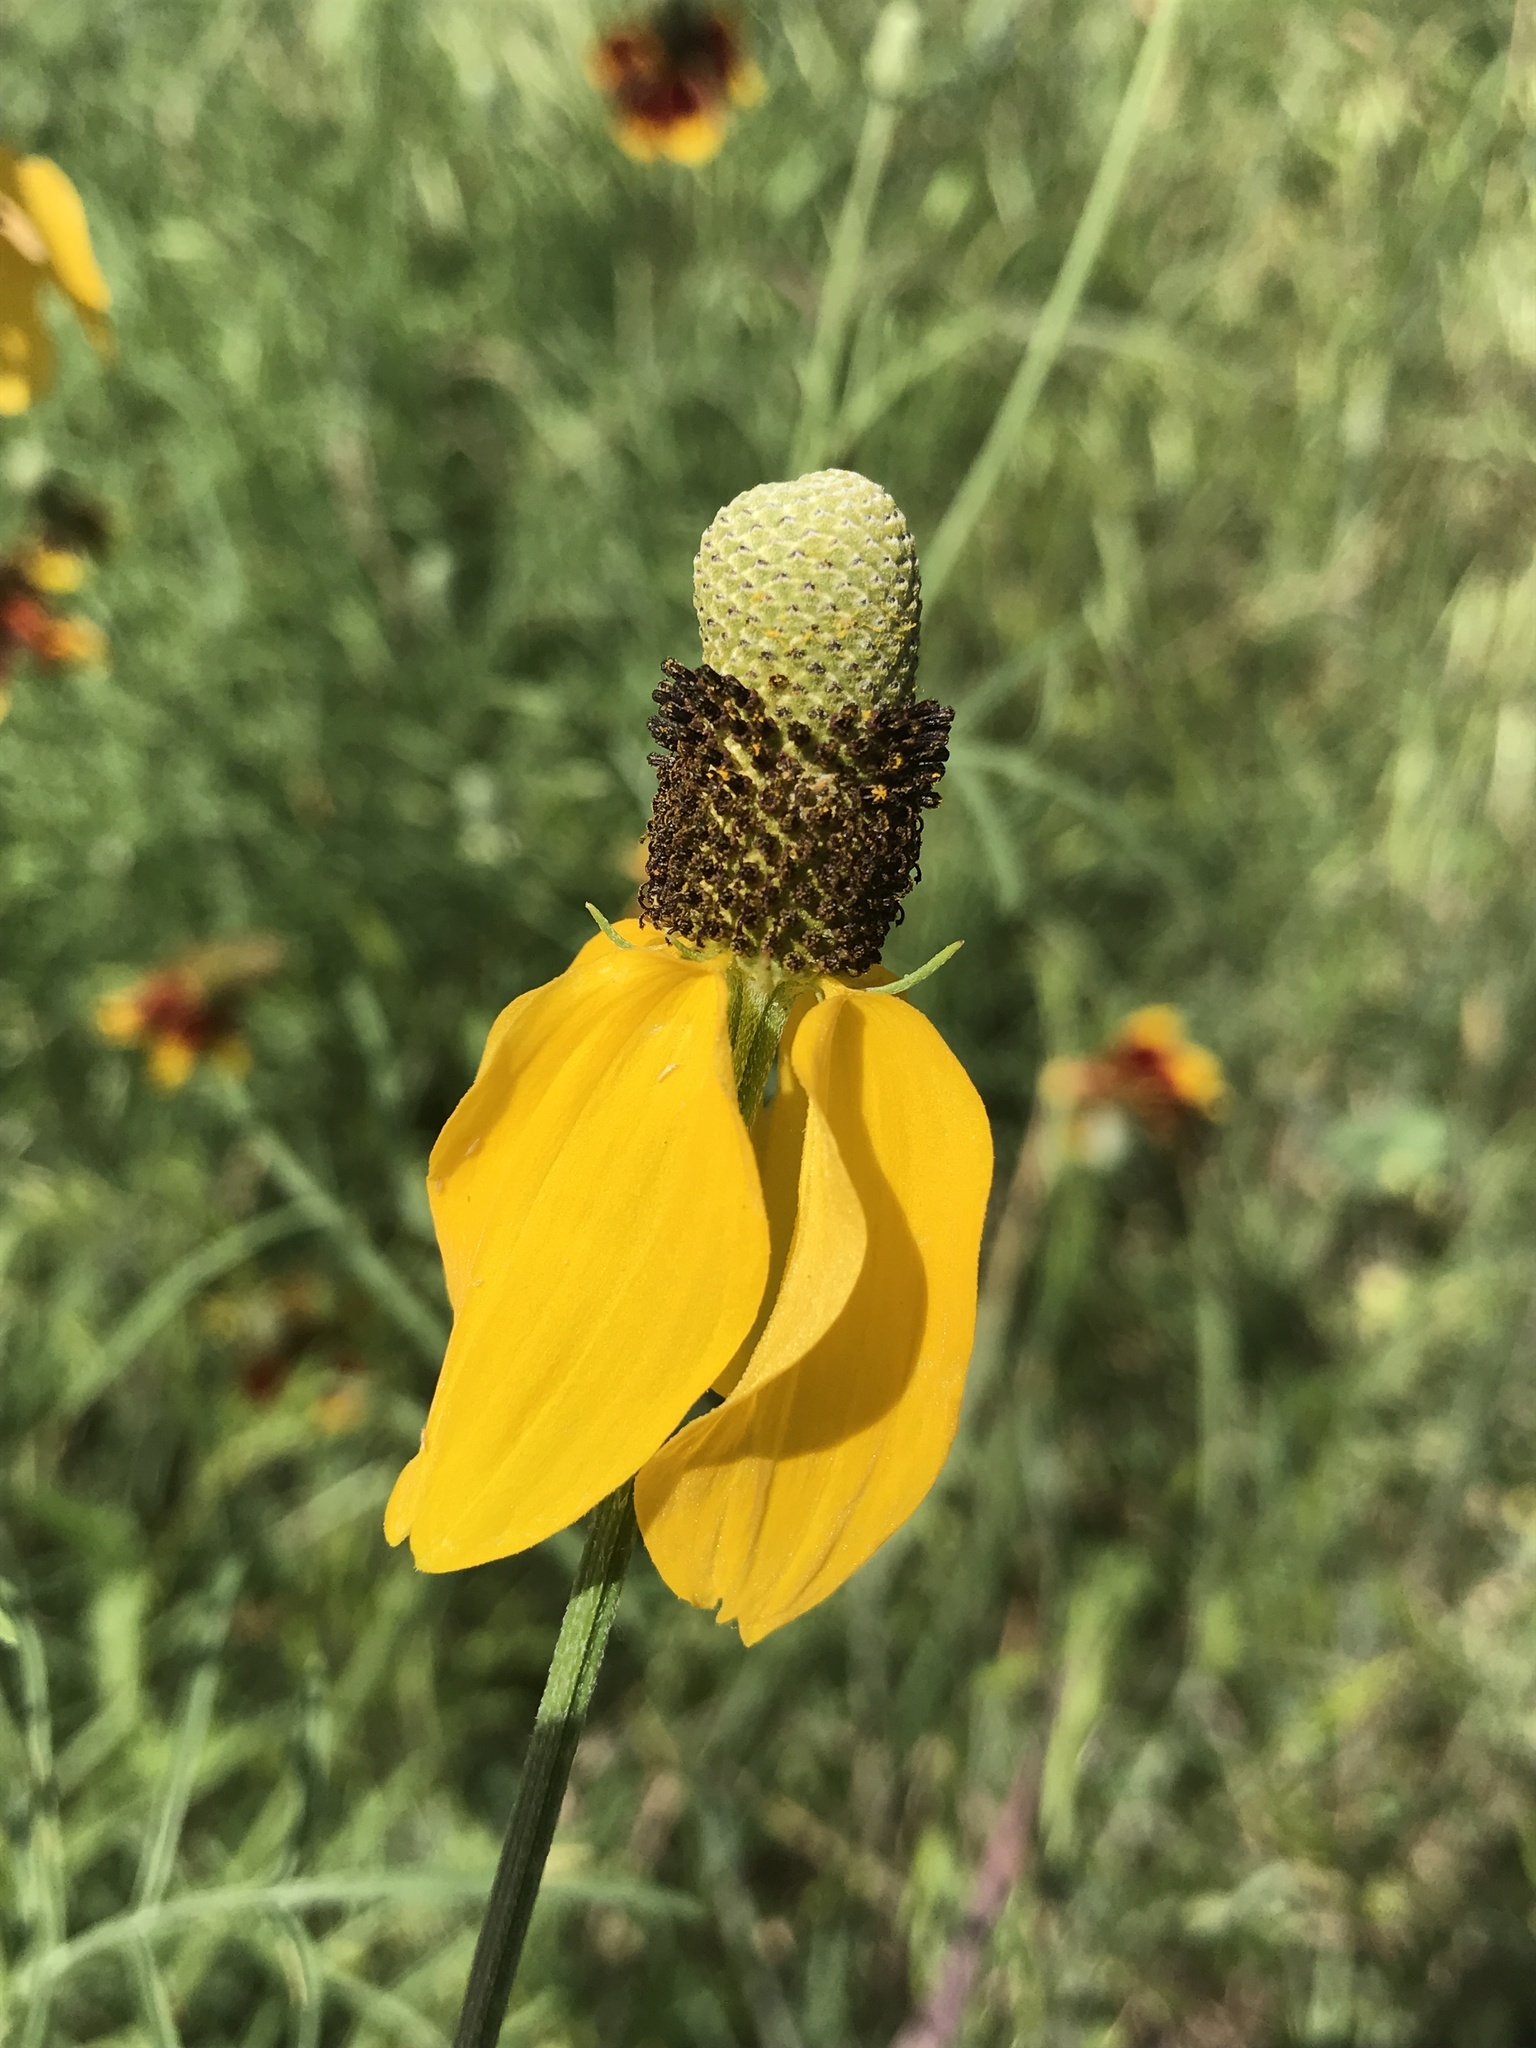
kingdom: Plantae
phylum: Tracheophyta
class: Magnoliopsida
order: Asterales
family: Asteraceae
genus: Ratibida
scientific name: Ratibida columnifera
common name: Prairie coneflower
